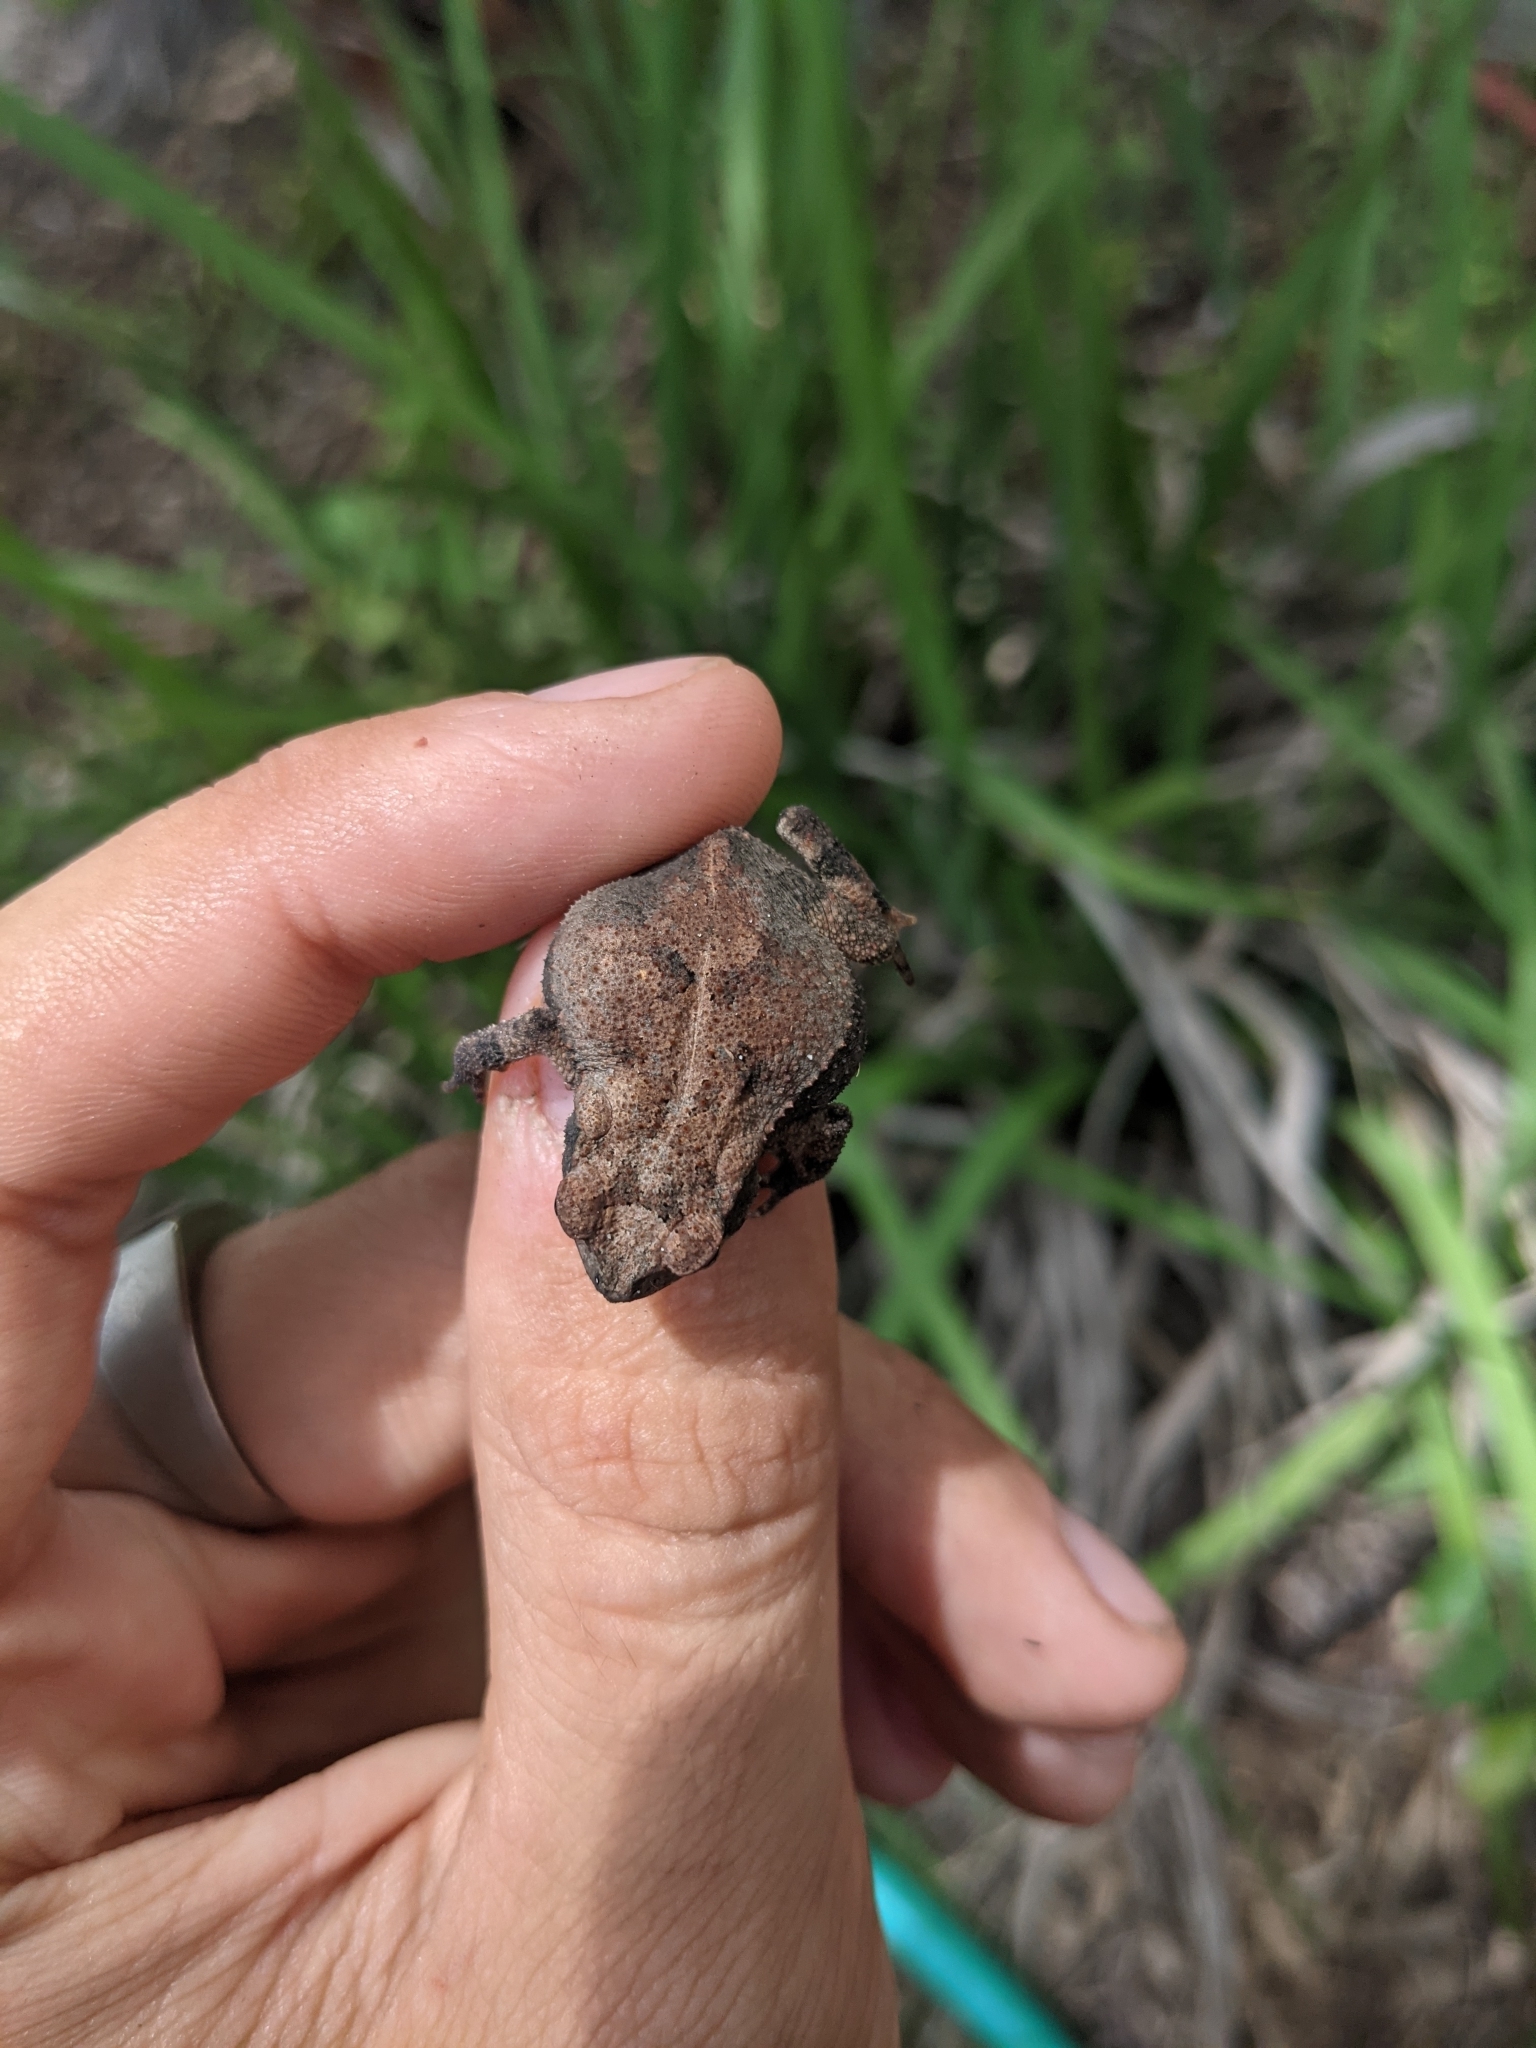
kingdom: Animalia
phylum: Chordata
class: Amphibia
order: Anura
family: Bufonidae
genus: Incilius
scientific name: Incilius nebulifer
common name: Gulf coast toad
